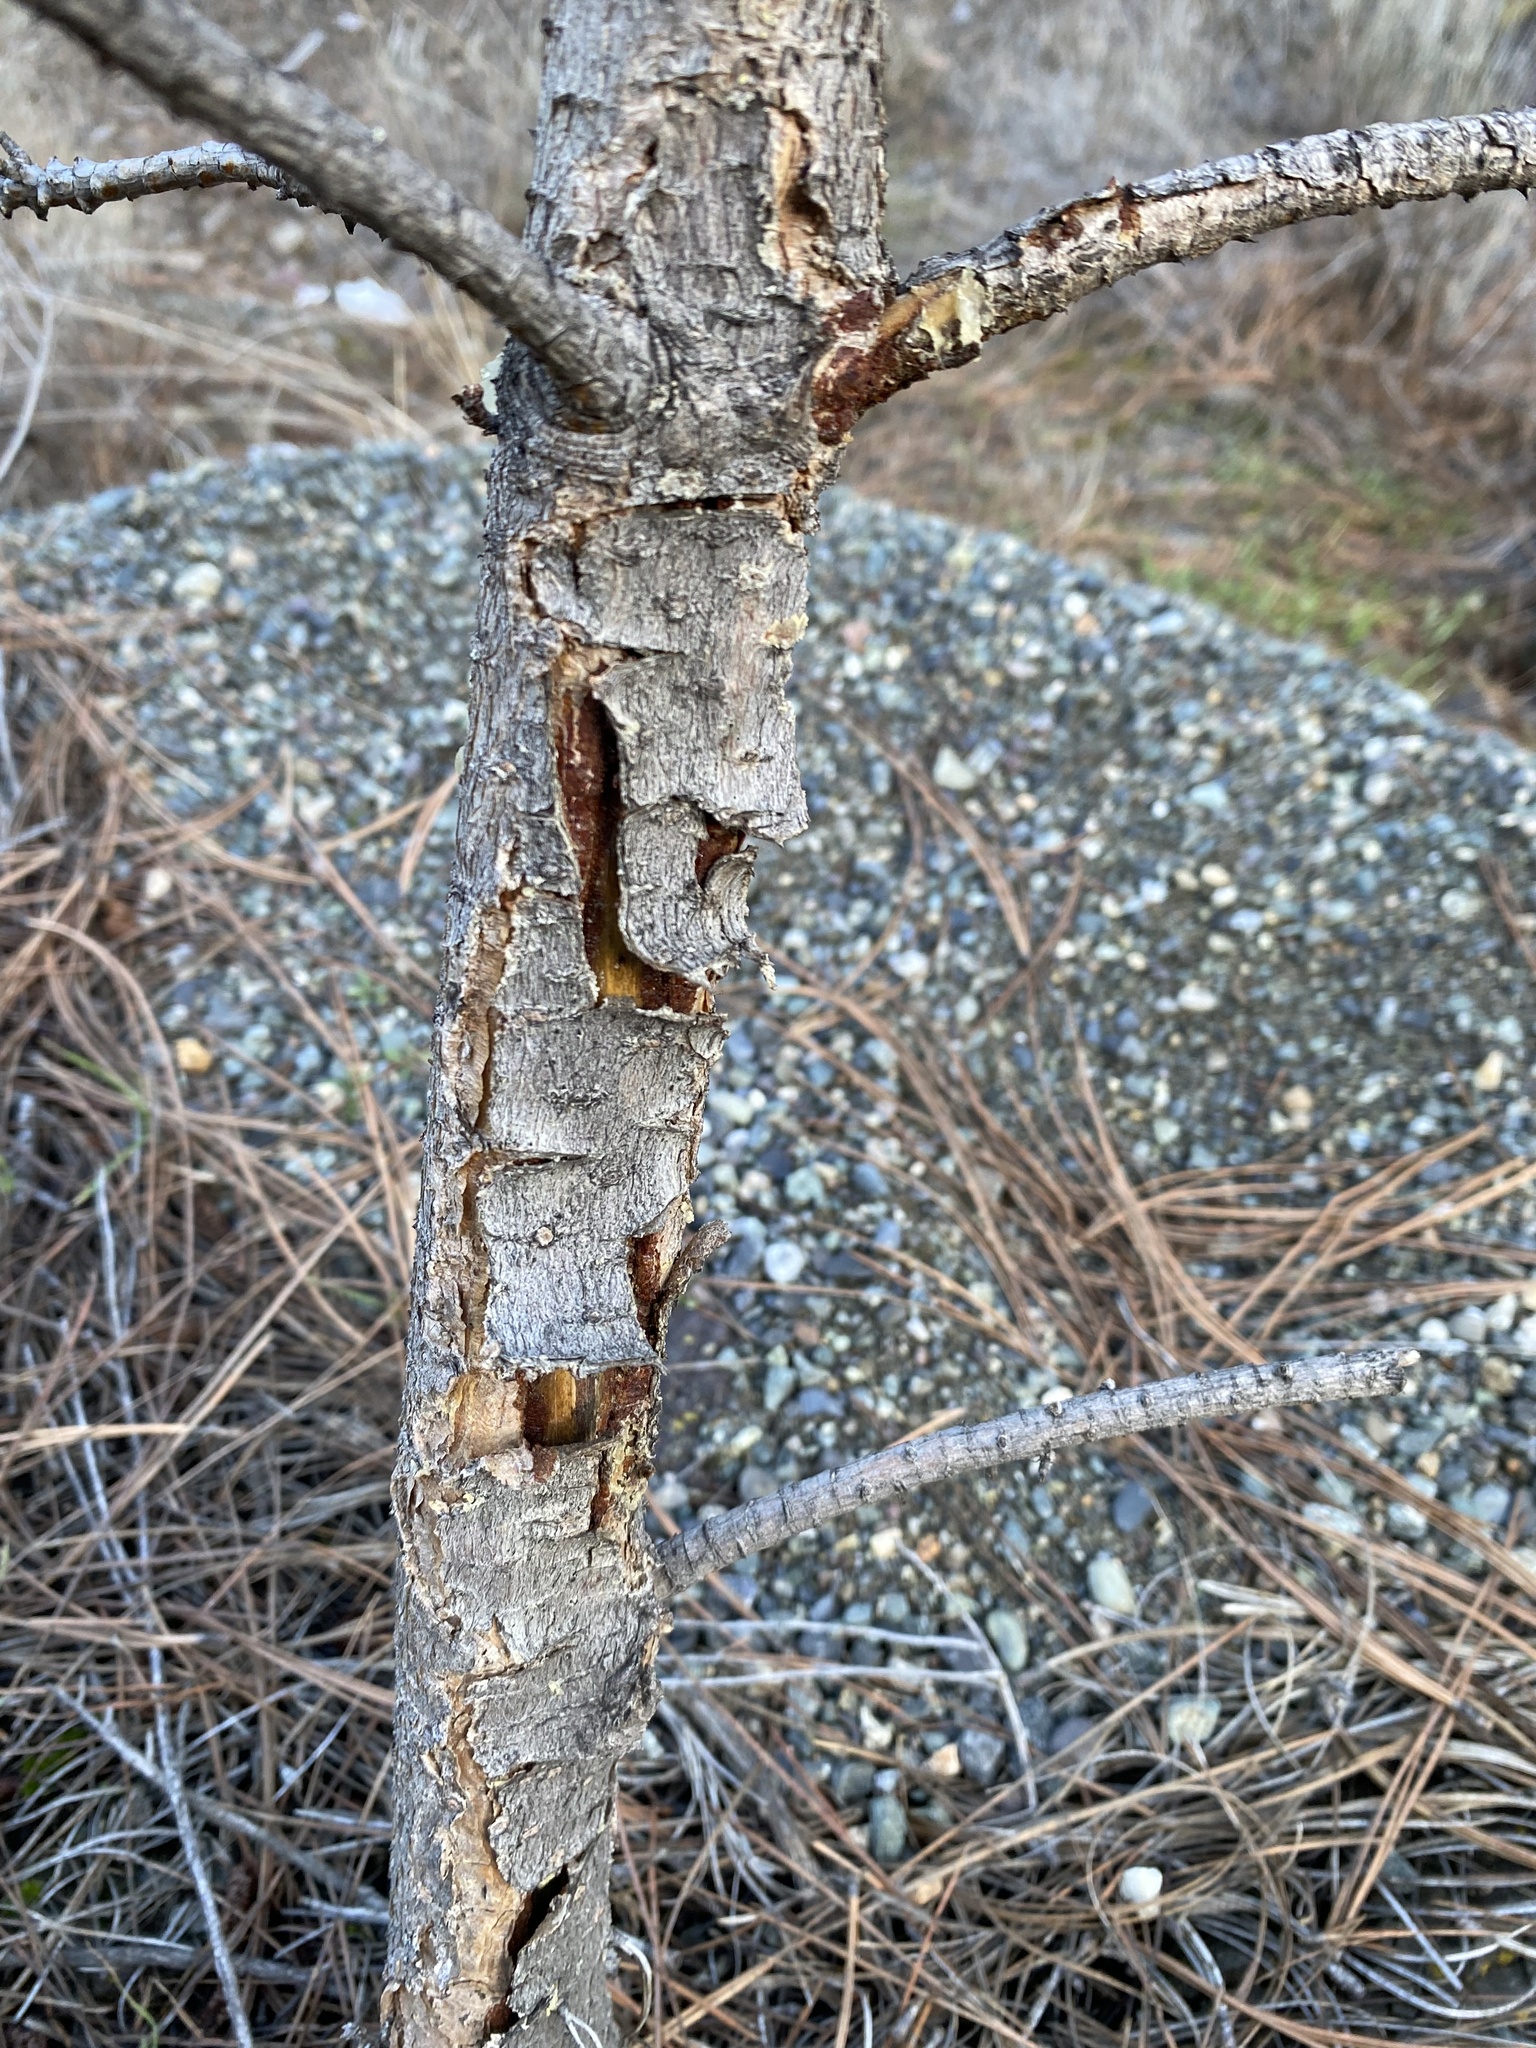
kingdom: Plantae
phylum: Tracheophyta
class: Pinopsida
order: Pinales
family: Pinaceae
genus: Pinus
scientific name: Pinus ponderosa
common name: Western yellow-pine
